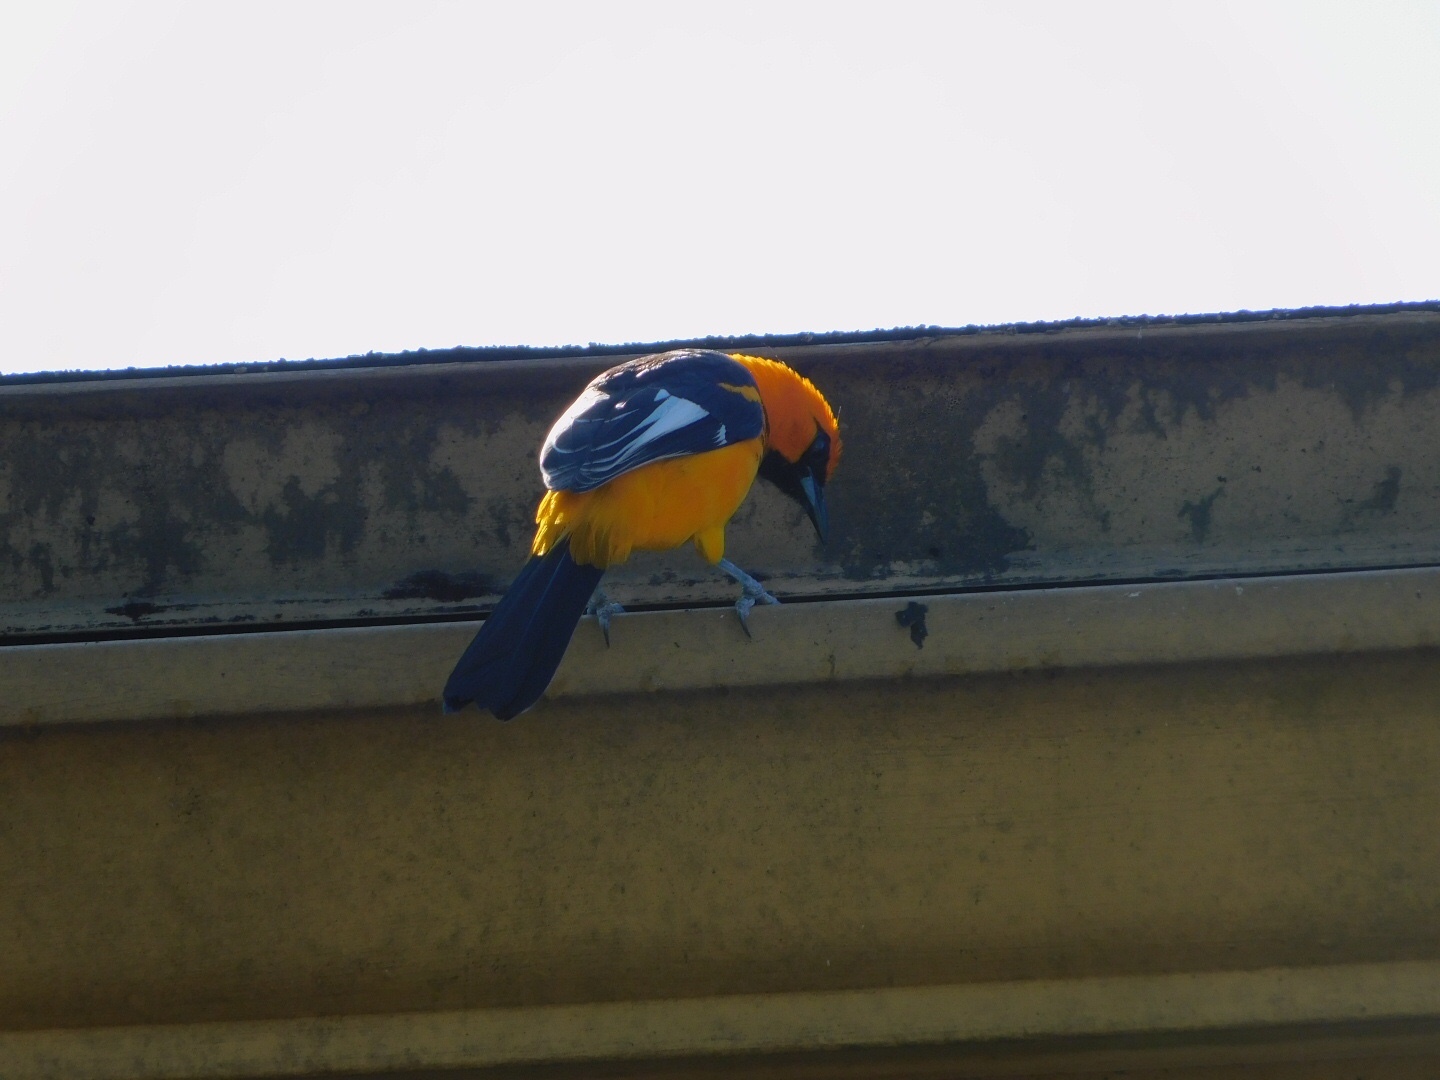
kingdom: Animalia
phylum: Chordata
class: Aves
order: Passeriformes
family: Icteridae
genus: Icterus
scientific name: Icterus pectoralis
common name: Spot-breasted oriole
